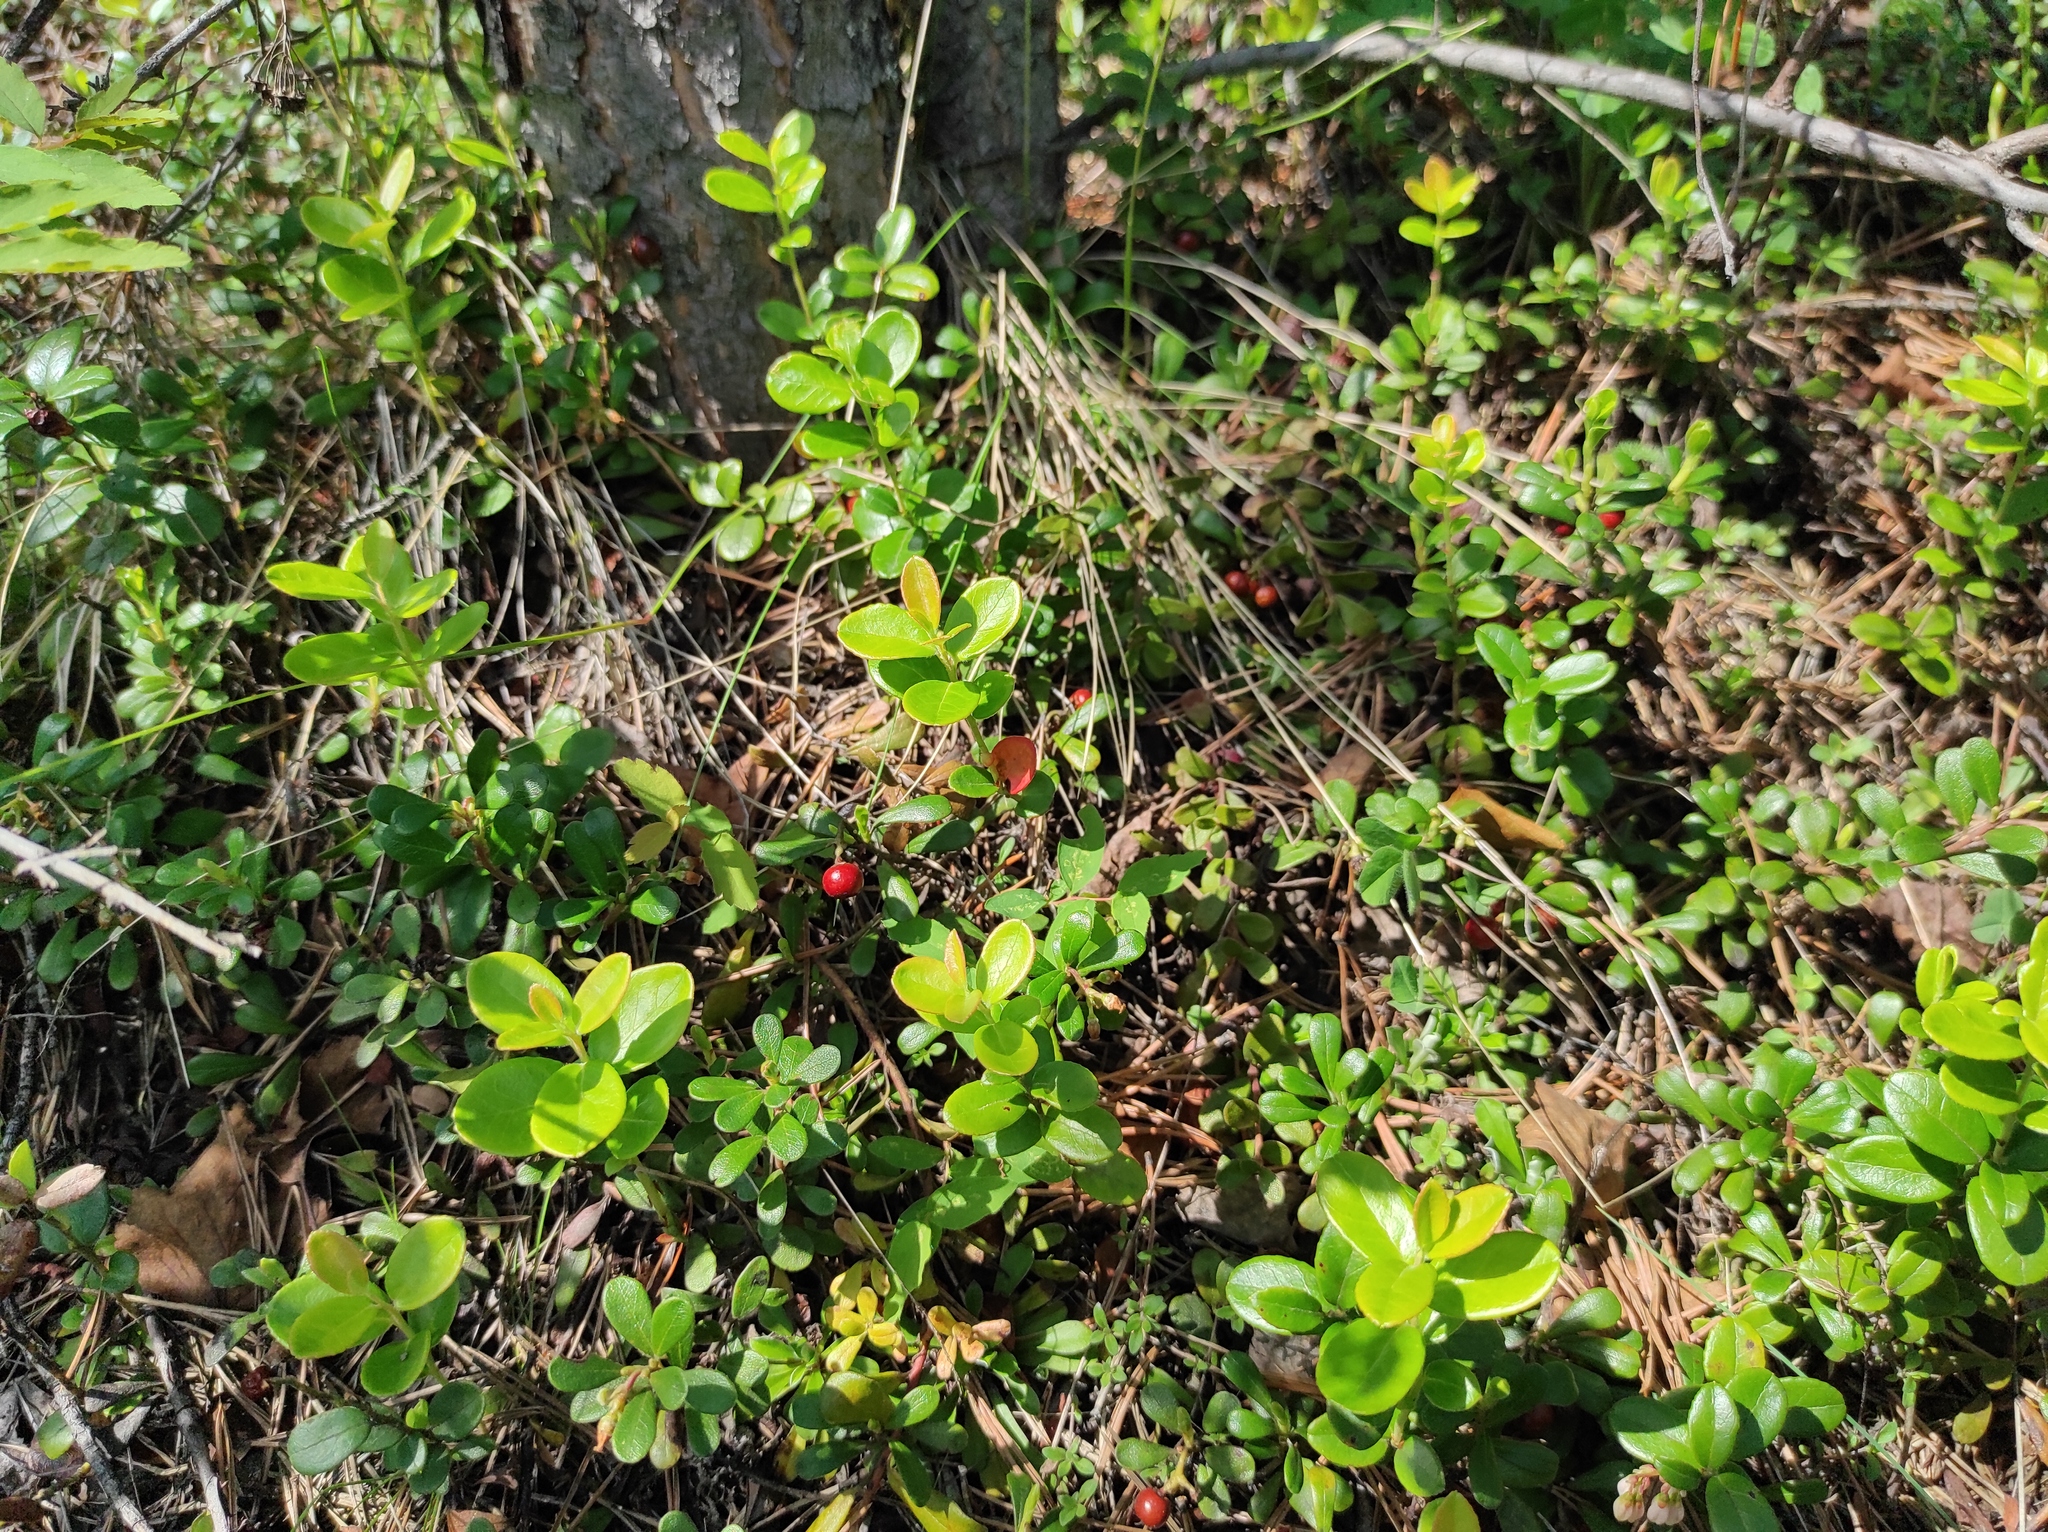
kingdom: Plantae
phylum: Tracheophyta
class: Magnoliopsida
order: Ericales
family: Ericaceae
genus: Arctostaphylos
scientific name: Arctostaphylos uva-ursi
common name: Bearberry
